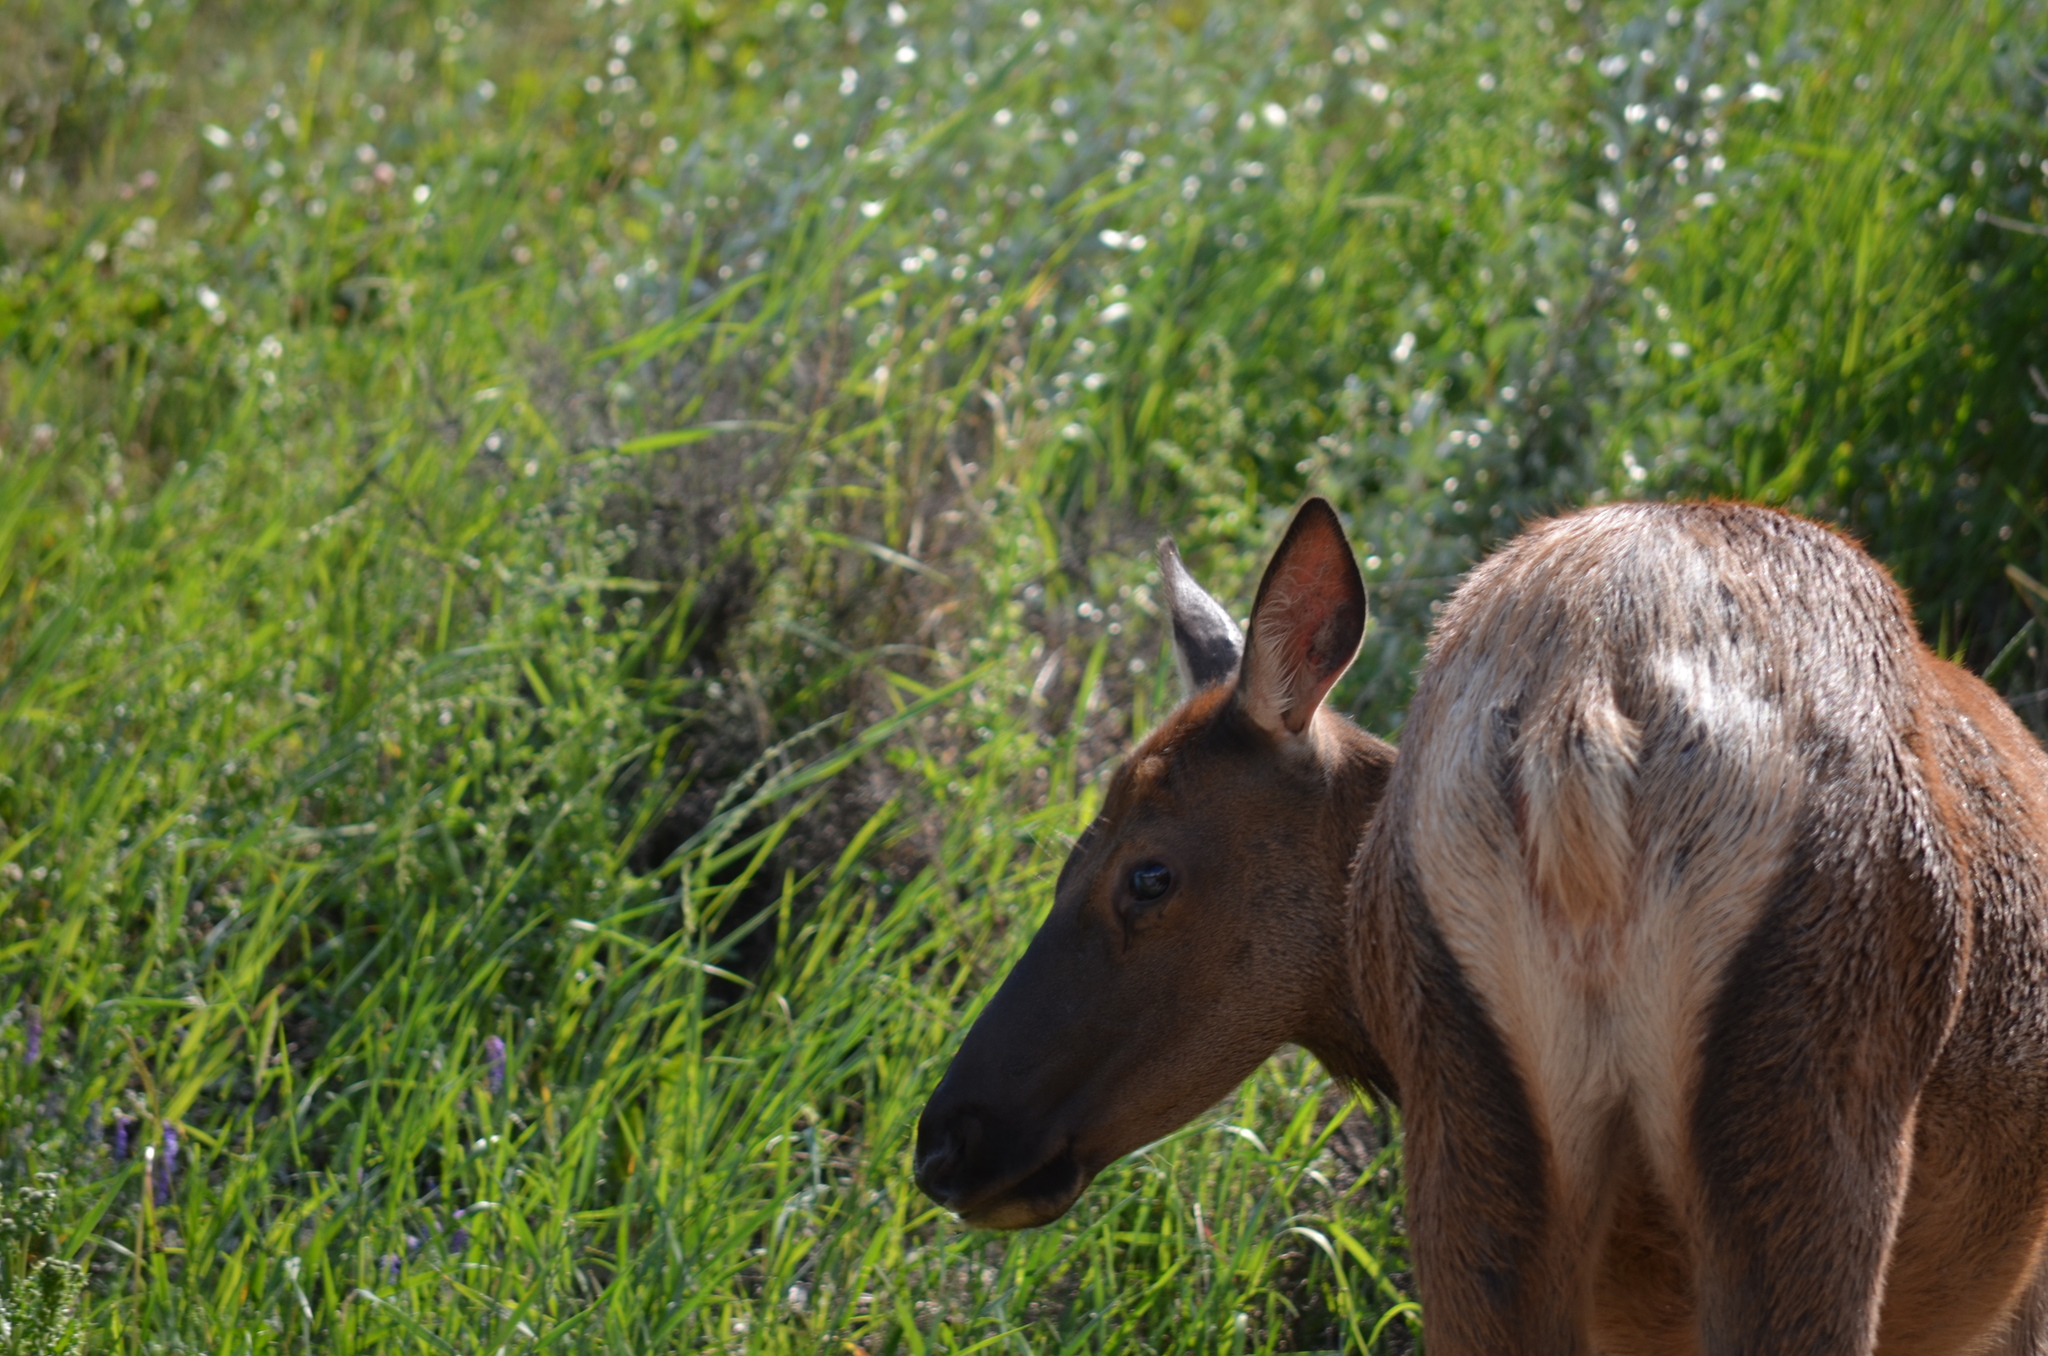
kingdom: Animalia
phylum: Chordata
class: Mammalia
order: Artiodactyla
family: Cervidae
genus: Cervus
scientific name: Cervus elaphus
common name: Red deer
